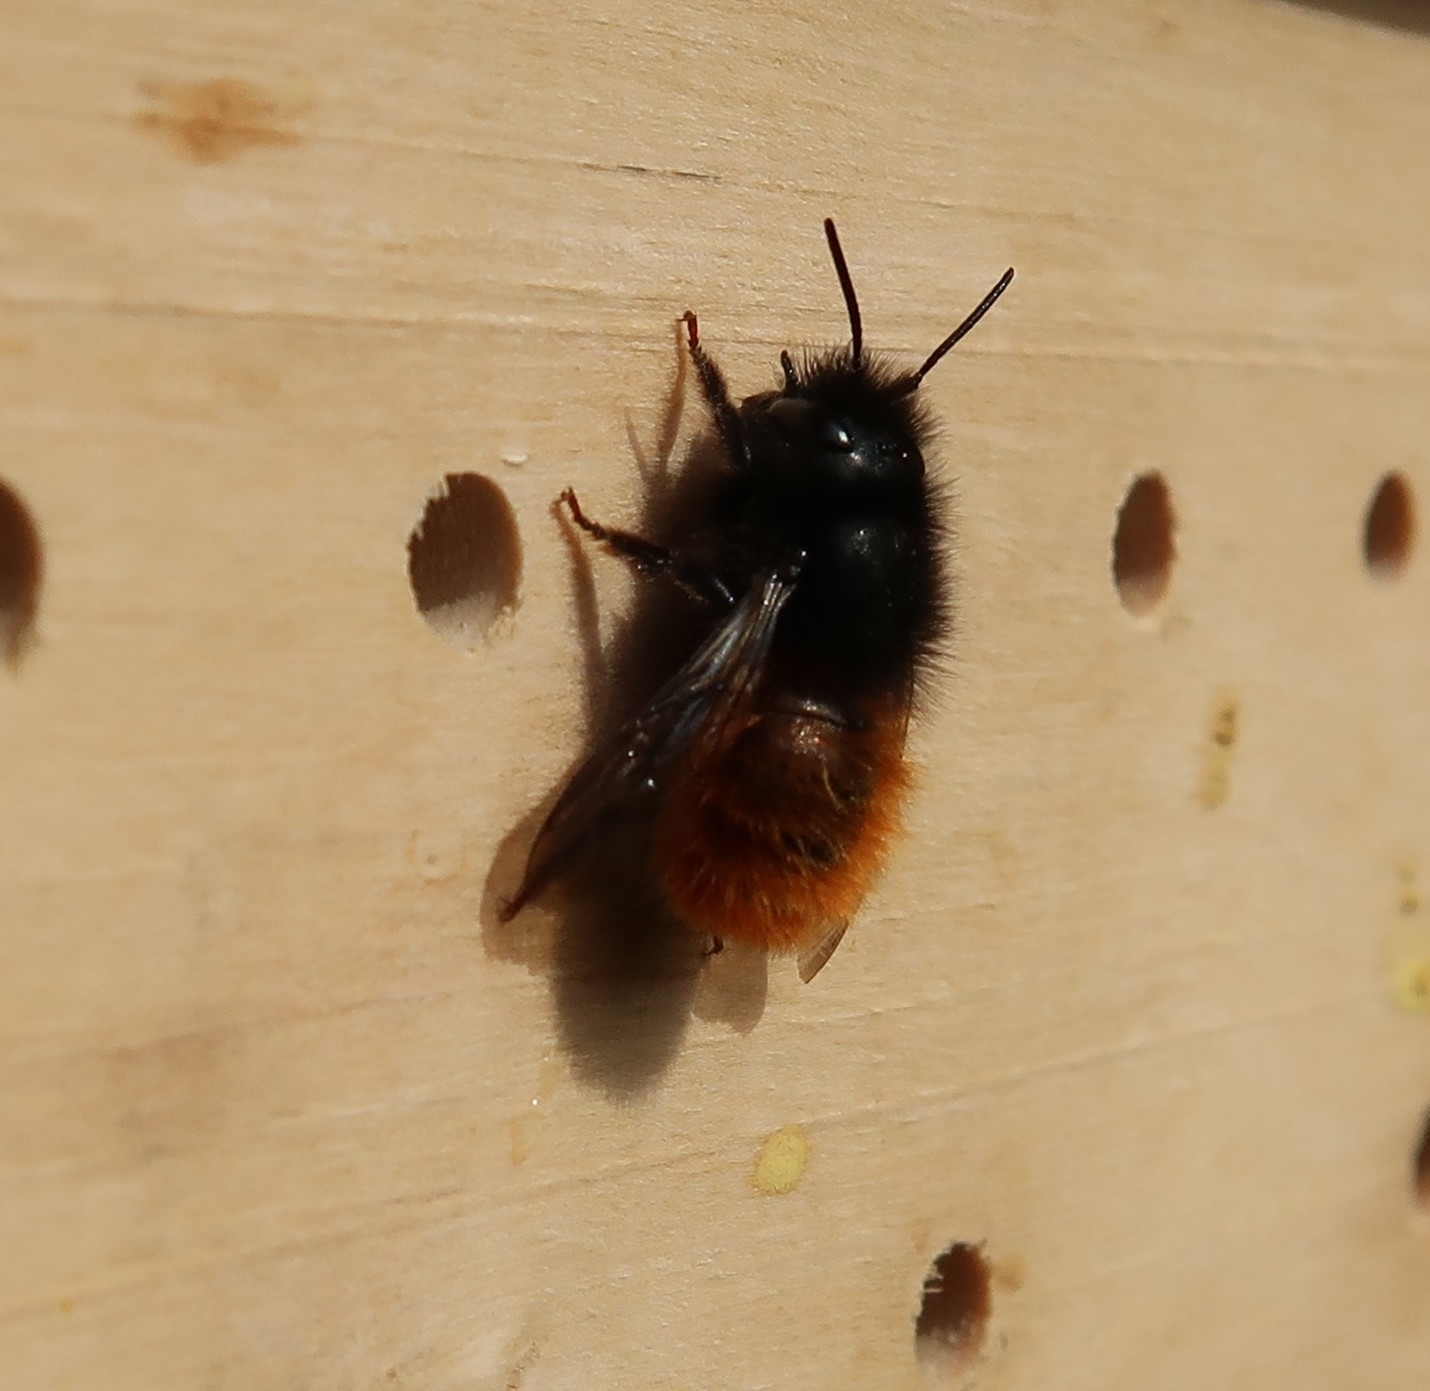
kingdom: Animalia
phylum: Arthropoda
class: Insecta
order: Hymenoptera
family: Megachilidae
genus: Osmia
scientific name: Osmia cornuta
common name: Mason bee
